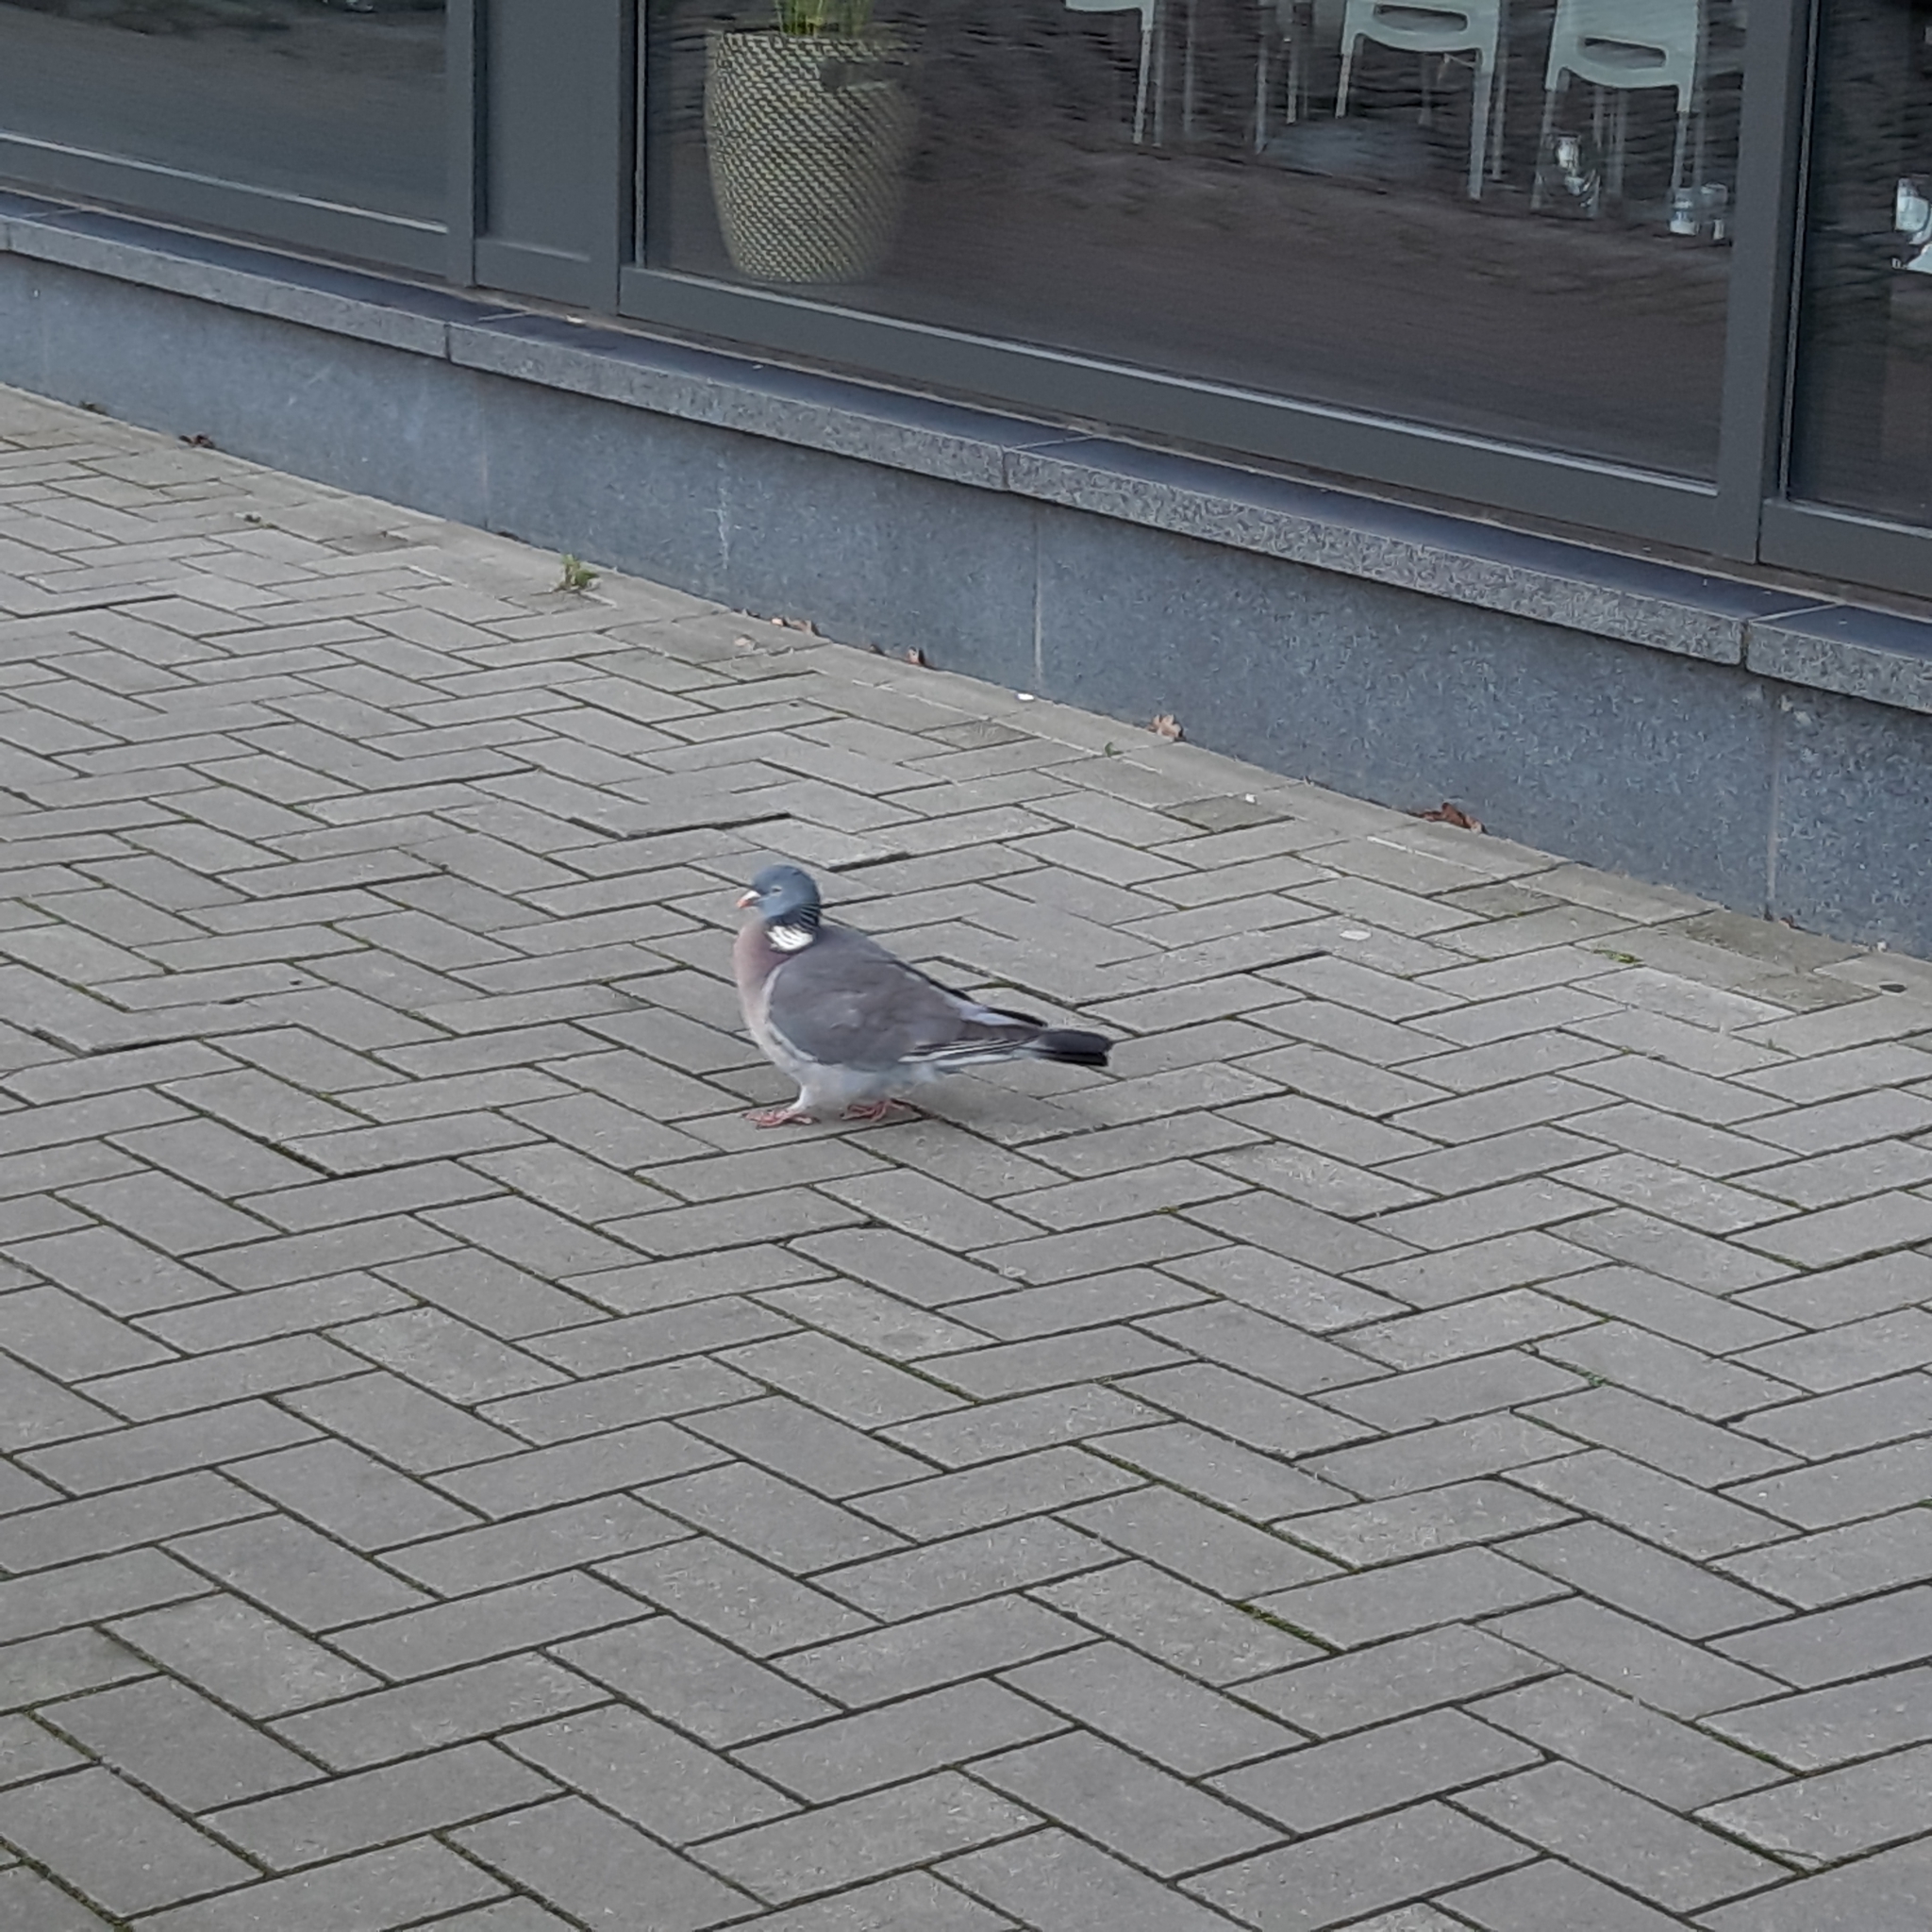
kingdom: Animalia
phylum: Chordata
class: Aves
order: Columbiformes
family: Columbidae
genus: Columba
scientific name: Columba palumbus
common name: Common wood pigeon
